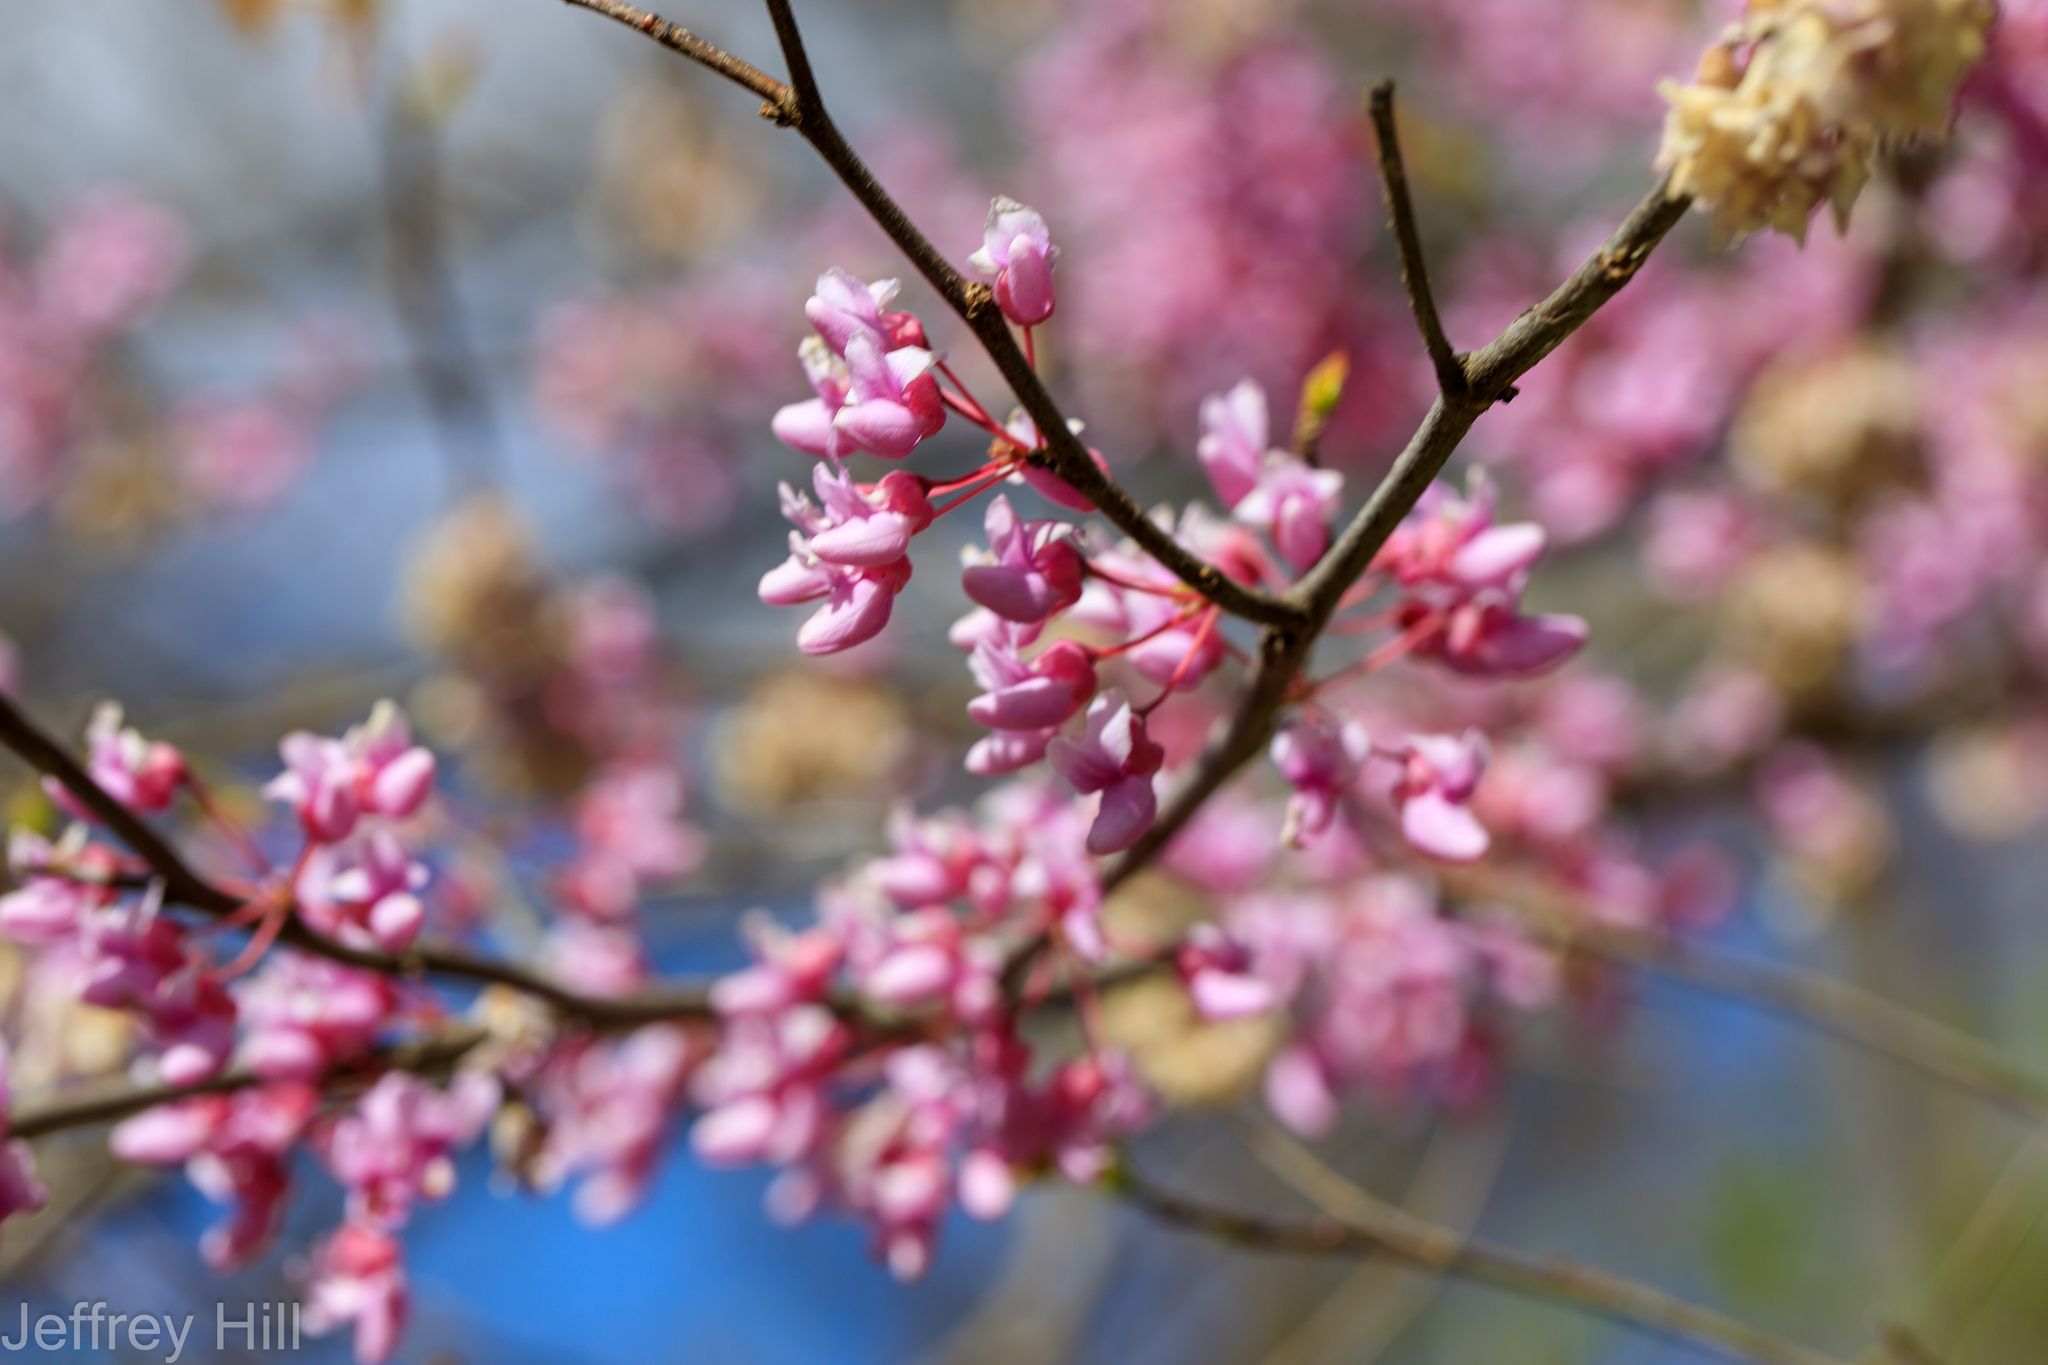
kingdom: Plantae
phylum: Tracheophyta
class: Magnoliopsida
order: Fabales
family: Fabaceae
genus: Cercis
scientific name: Cercis canadensis
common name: Eastern redbud
